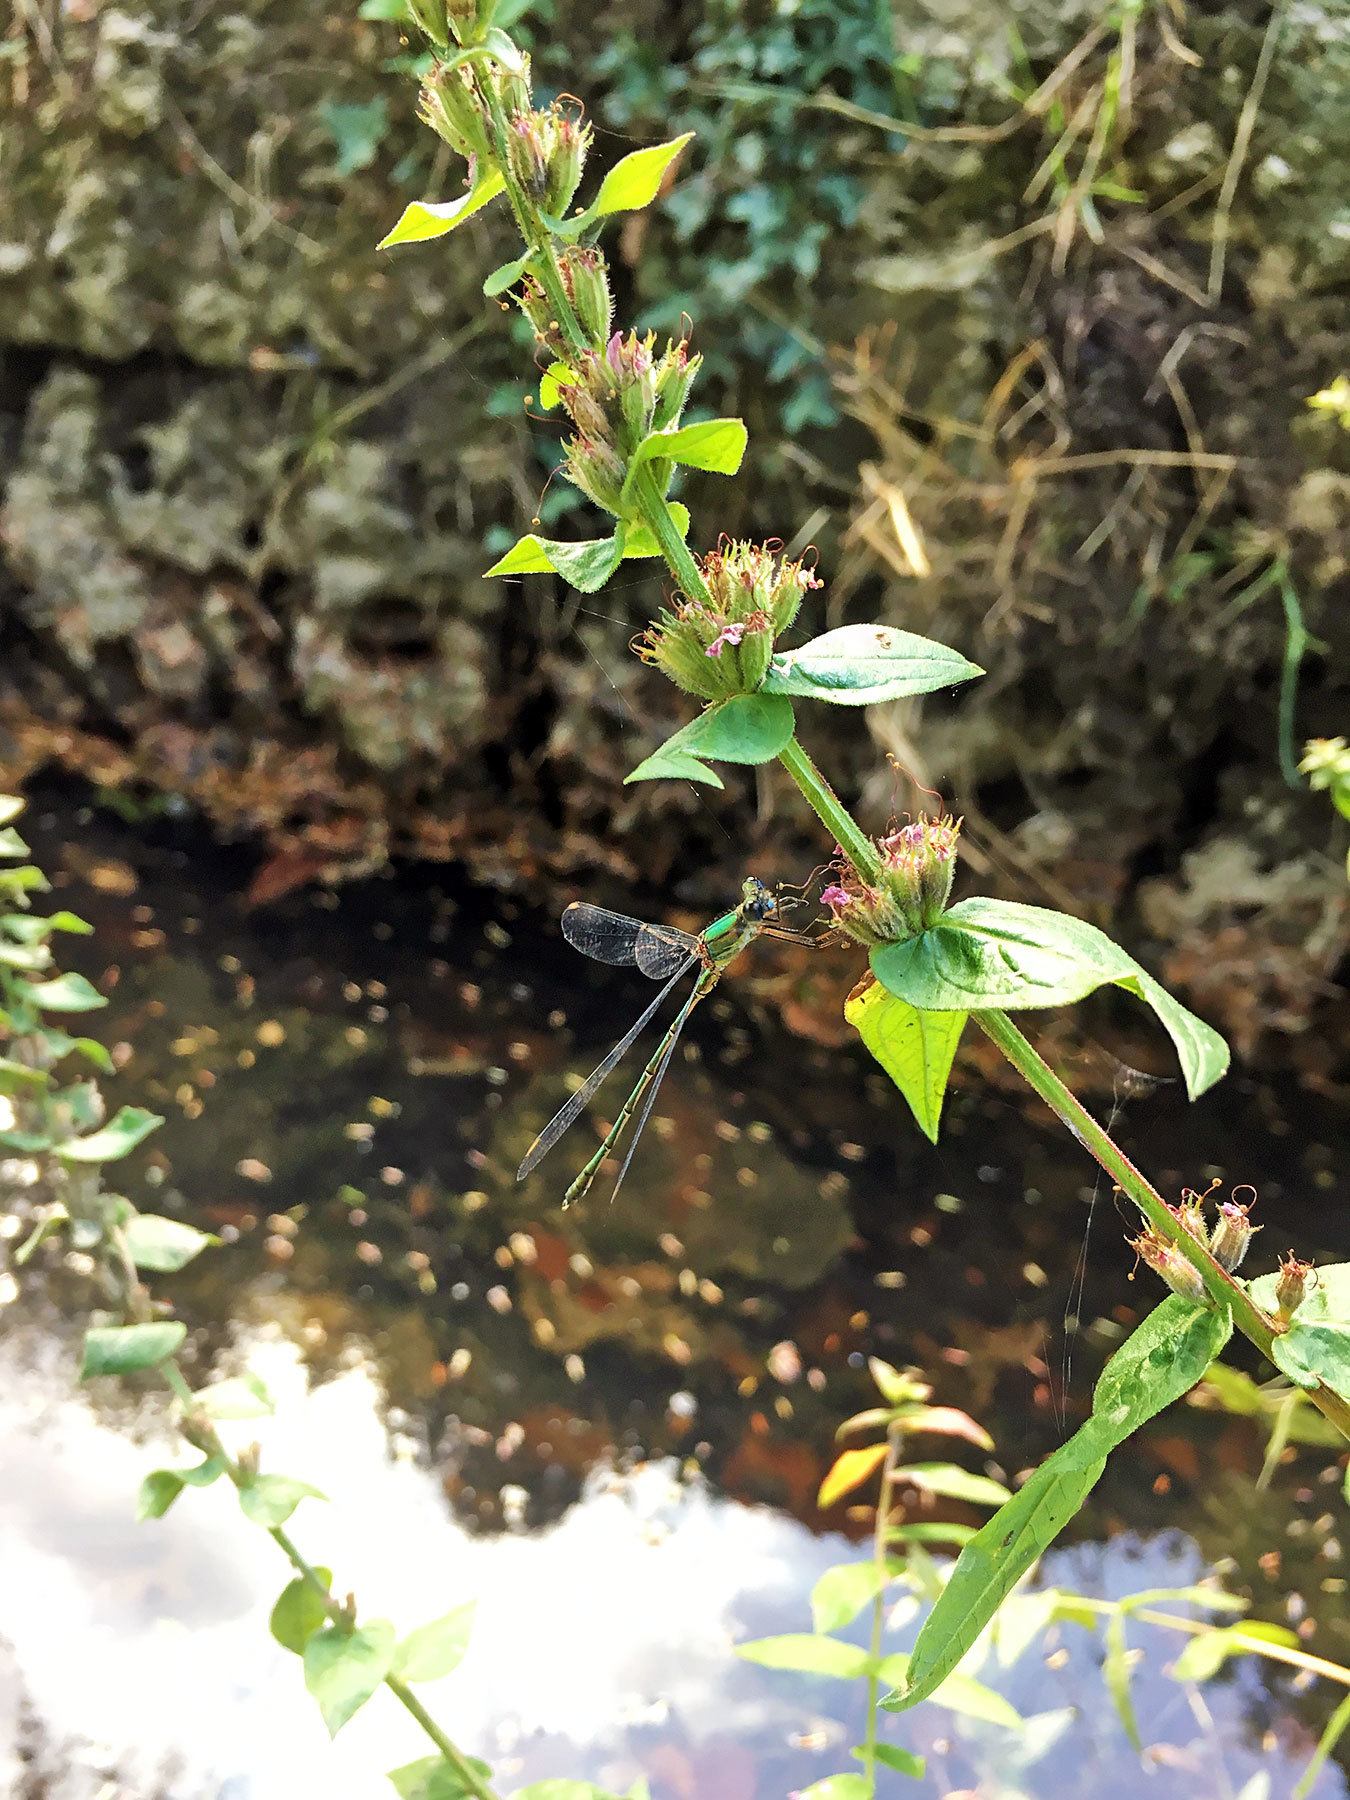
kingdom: Animalia
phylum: Arthropoda
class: Insecta
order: Odonata
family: Lestidae
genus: Chalcolestes
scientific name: Chalcolestes viridis
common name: Green emerald damselfly
